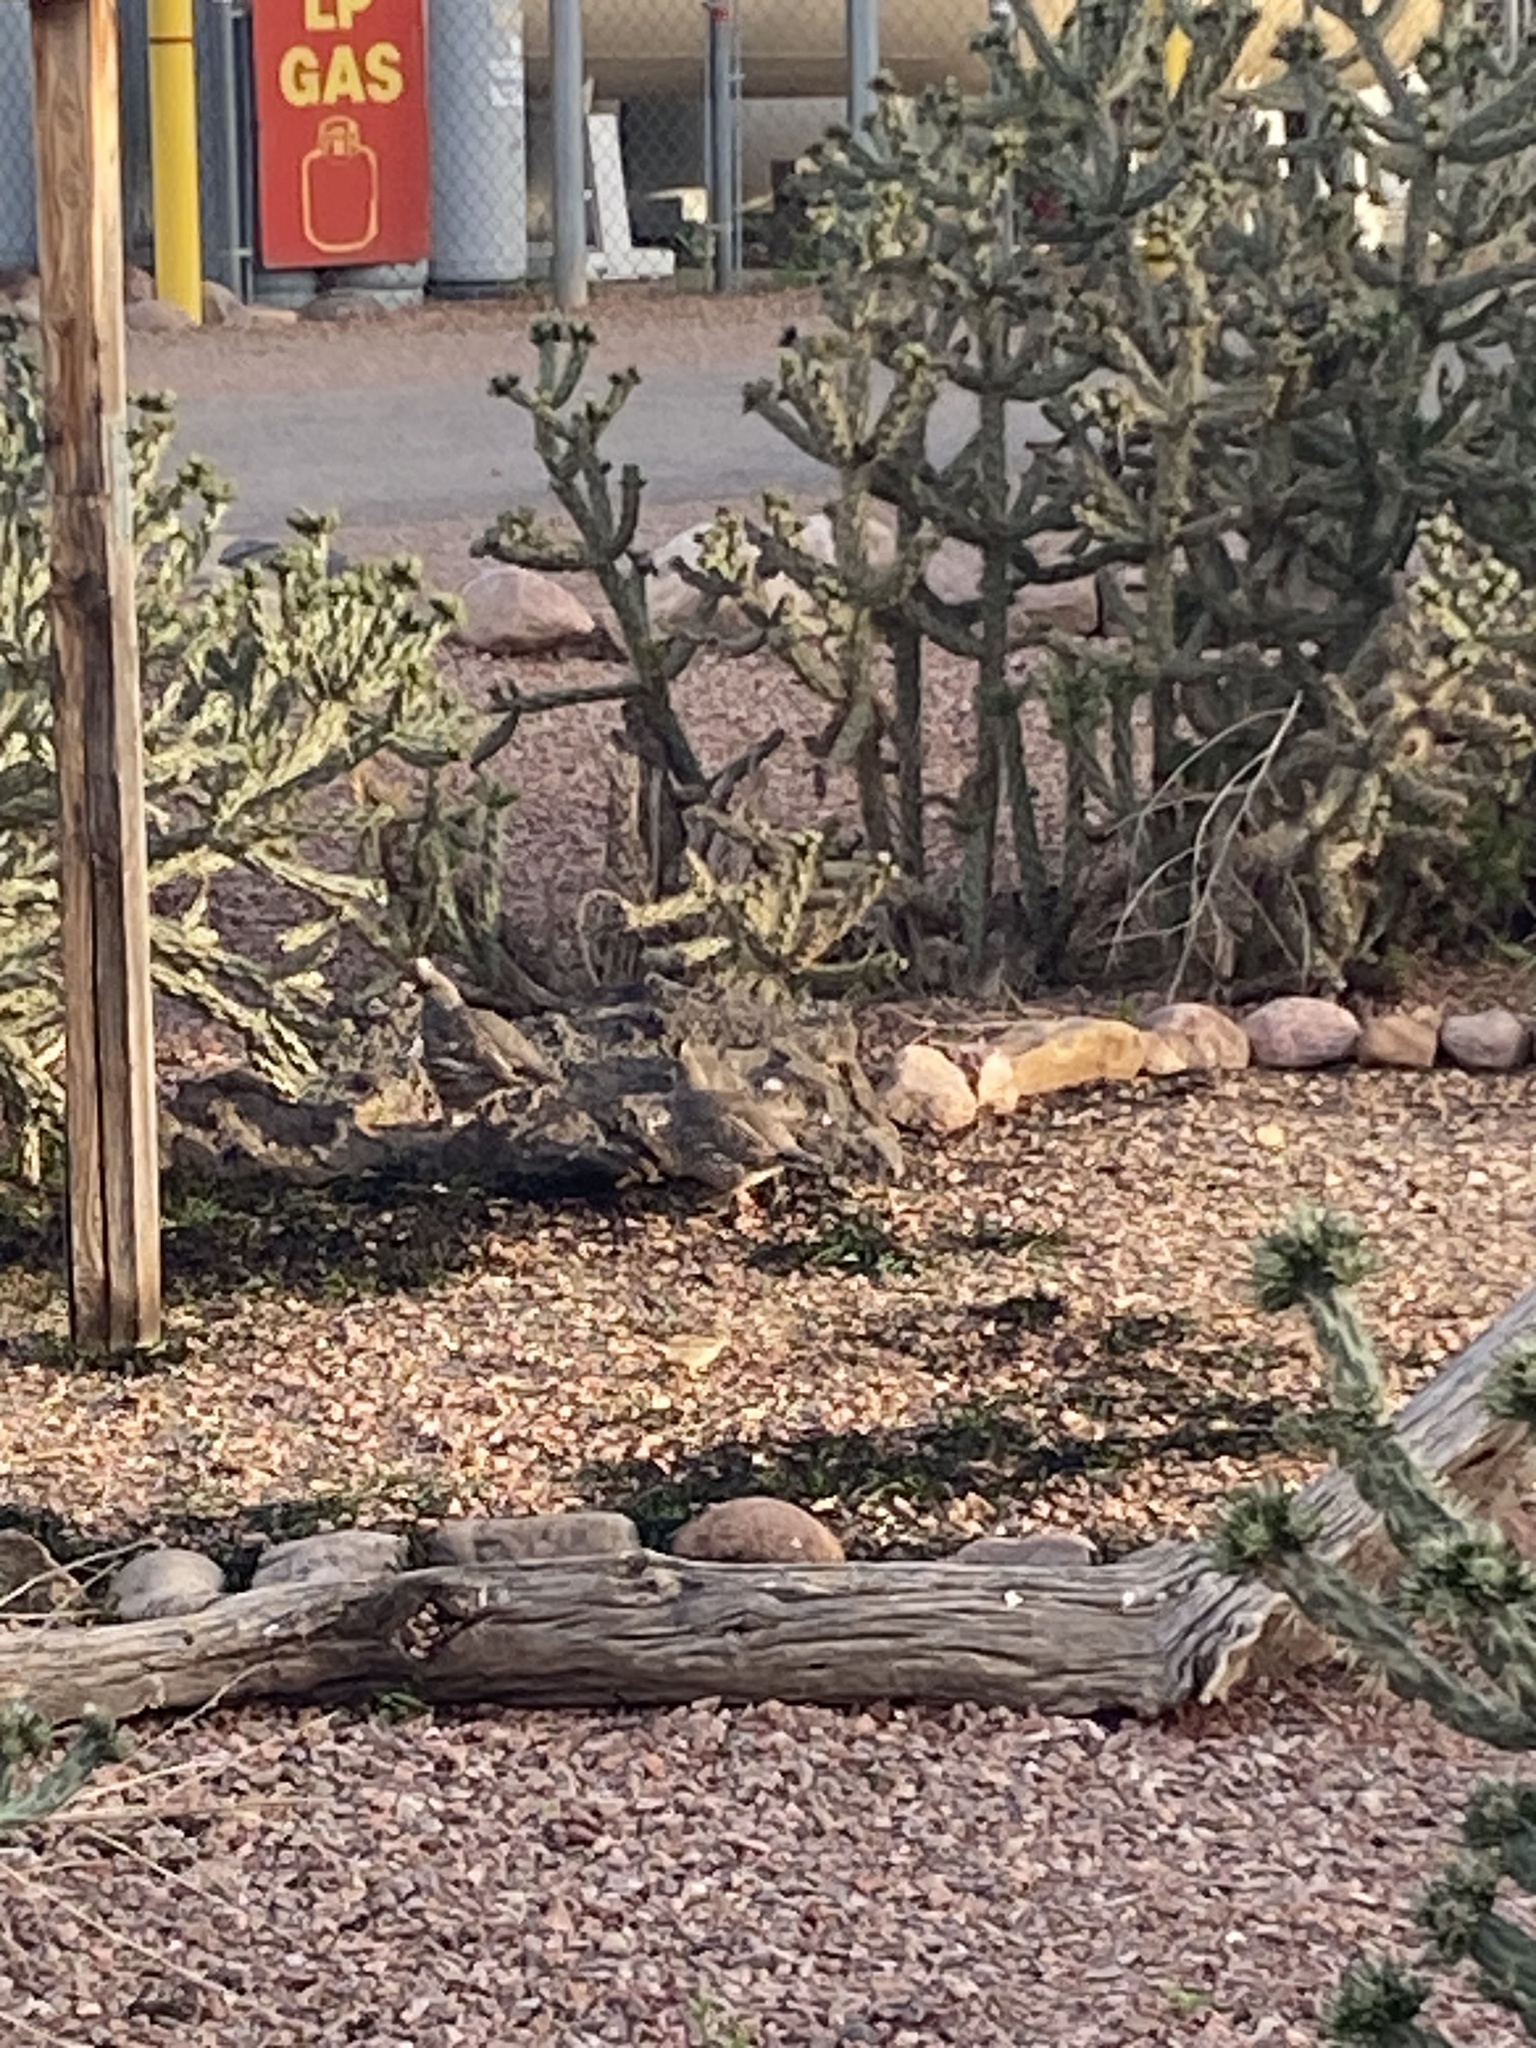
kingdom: Animalia
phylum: Chordata
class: Aves
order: Galliformes
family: Odontophoridae
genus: Callipepla
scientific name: Callipepla squamata
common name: Scaled quail
